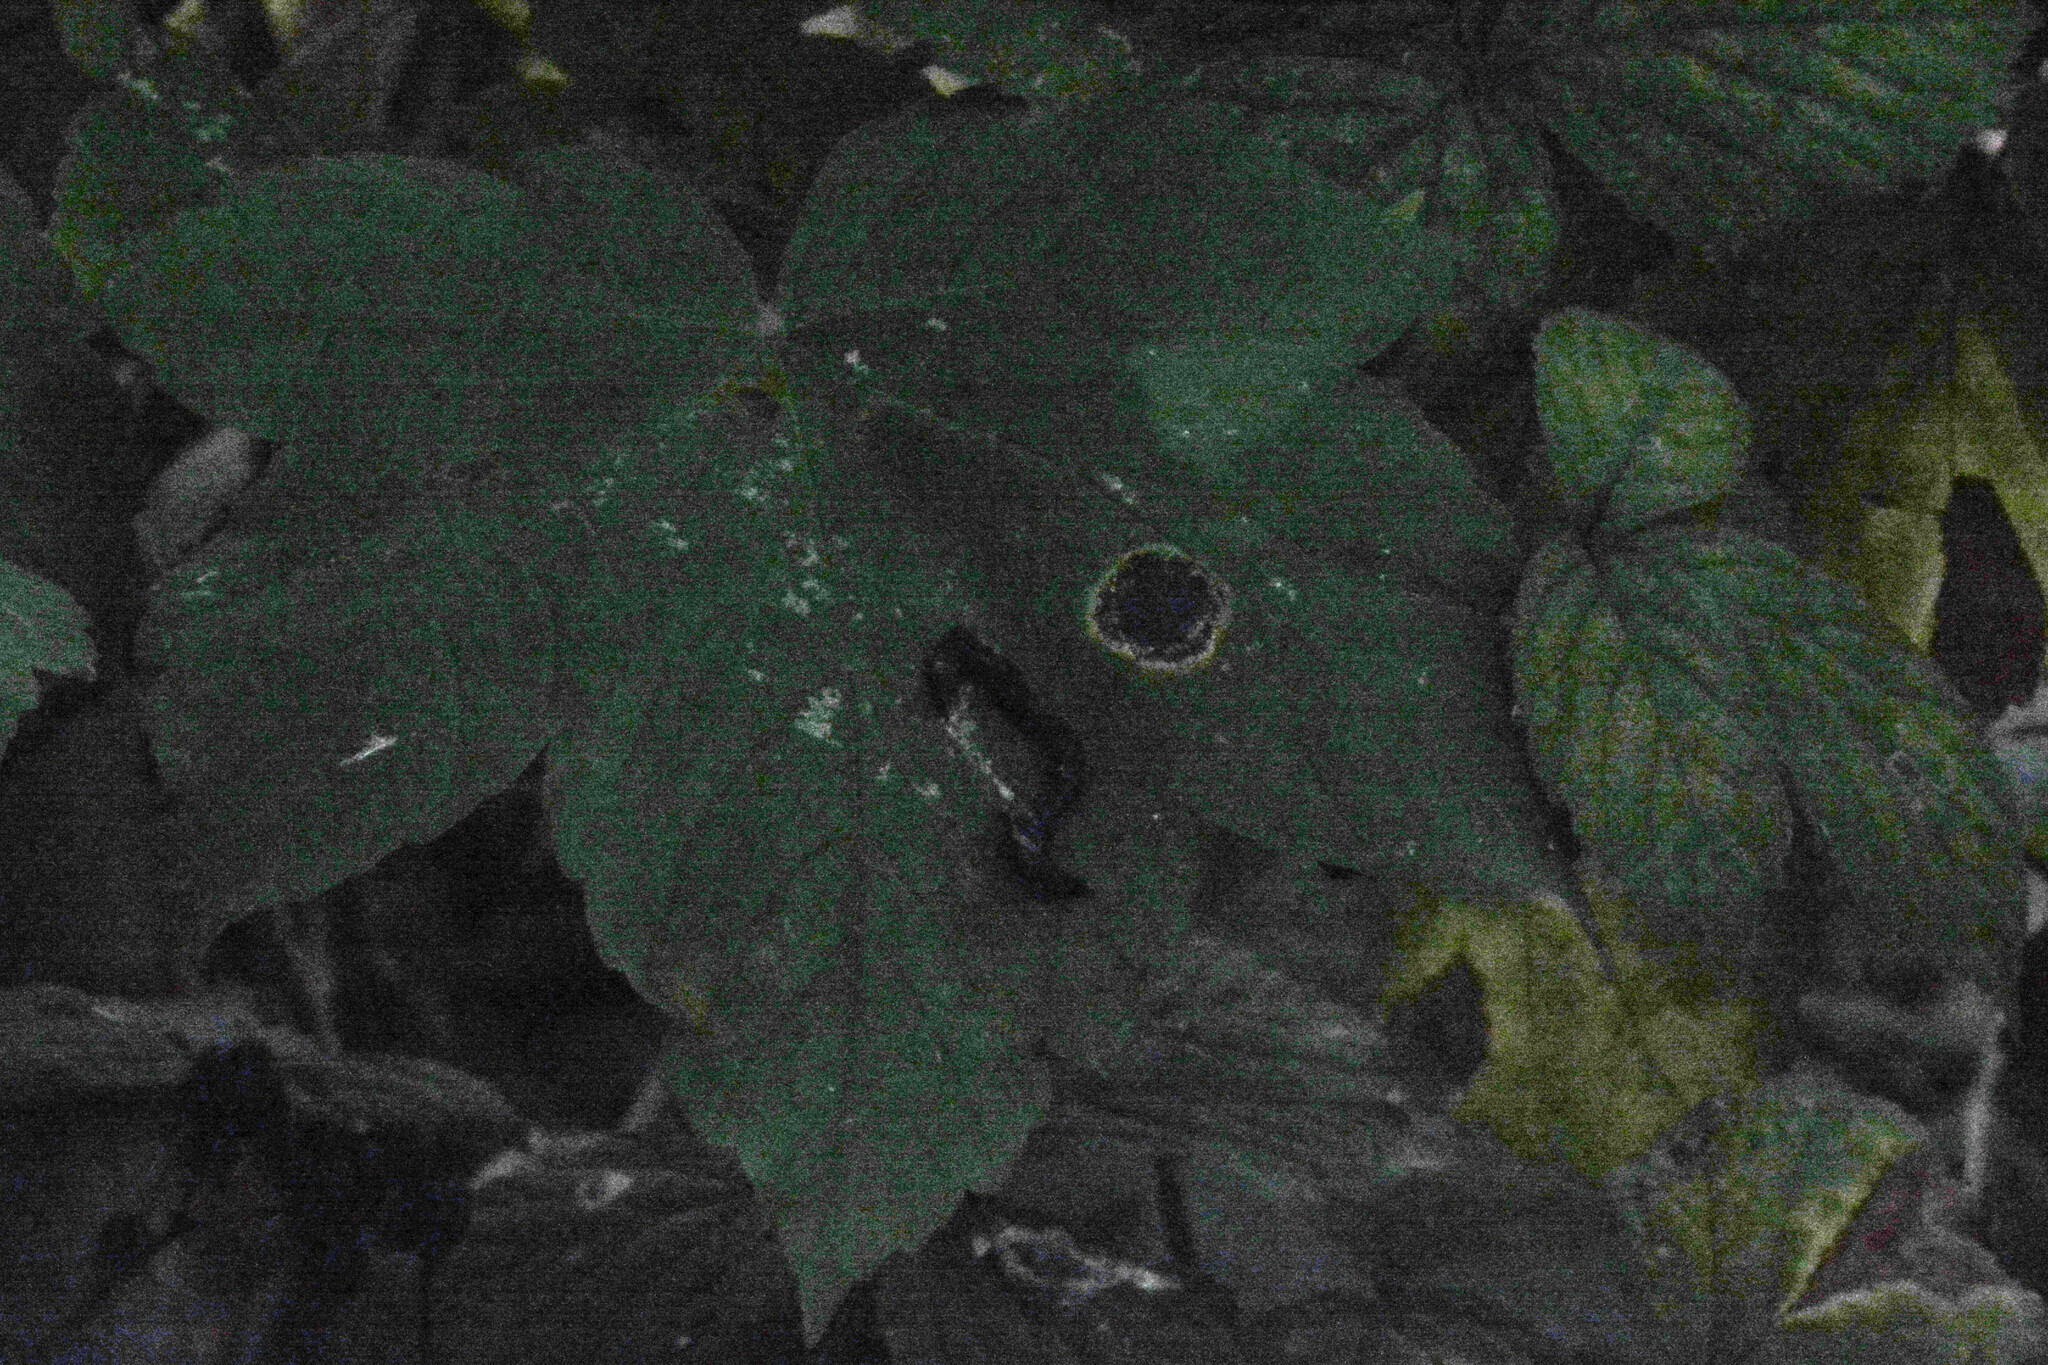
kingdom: Fungi
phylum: Ascomycota
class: Leotiomycetes
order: Rhytismatales
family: Rhytismataceae
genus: Rhytisma
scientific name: Rhytisma acerinum
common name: European tar spot
